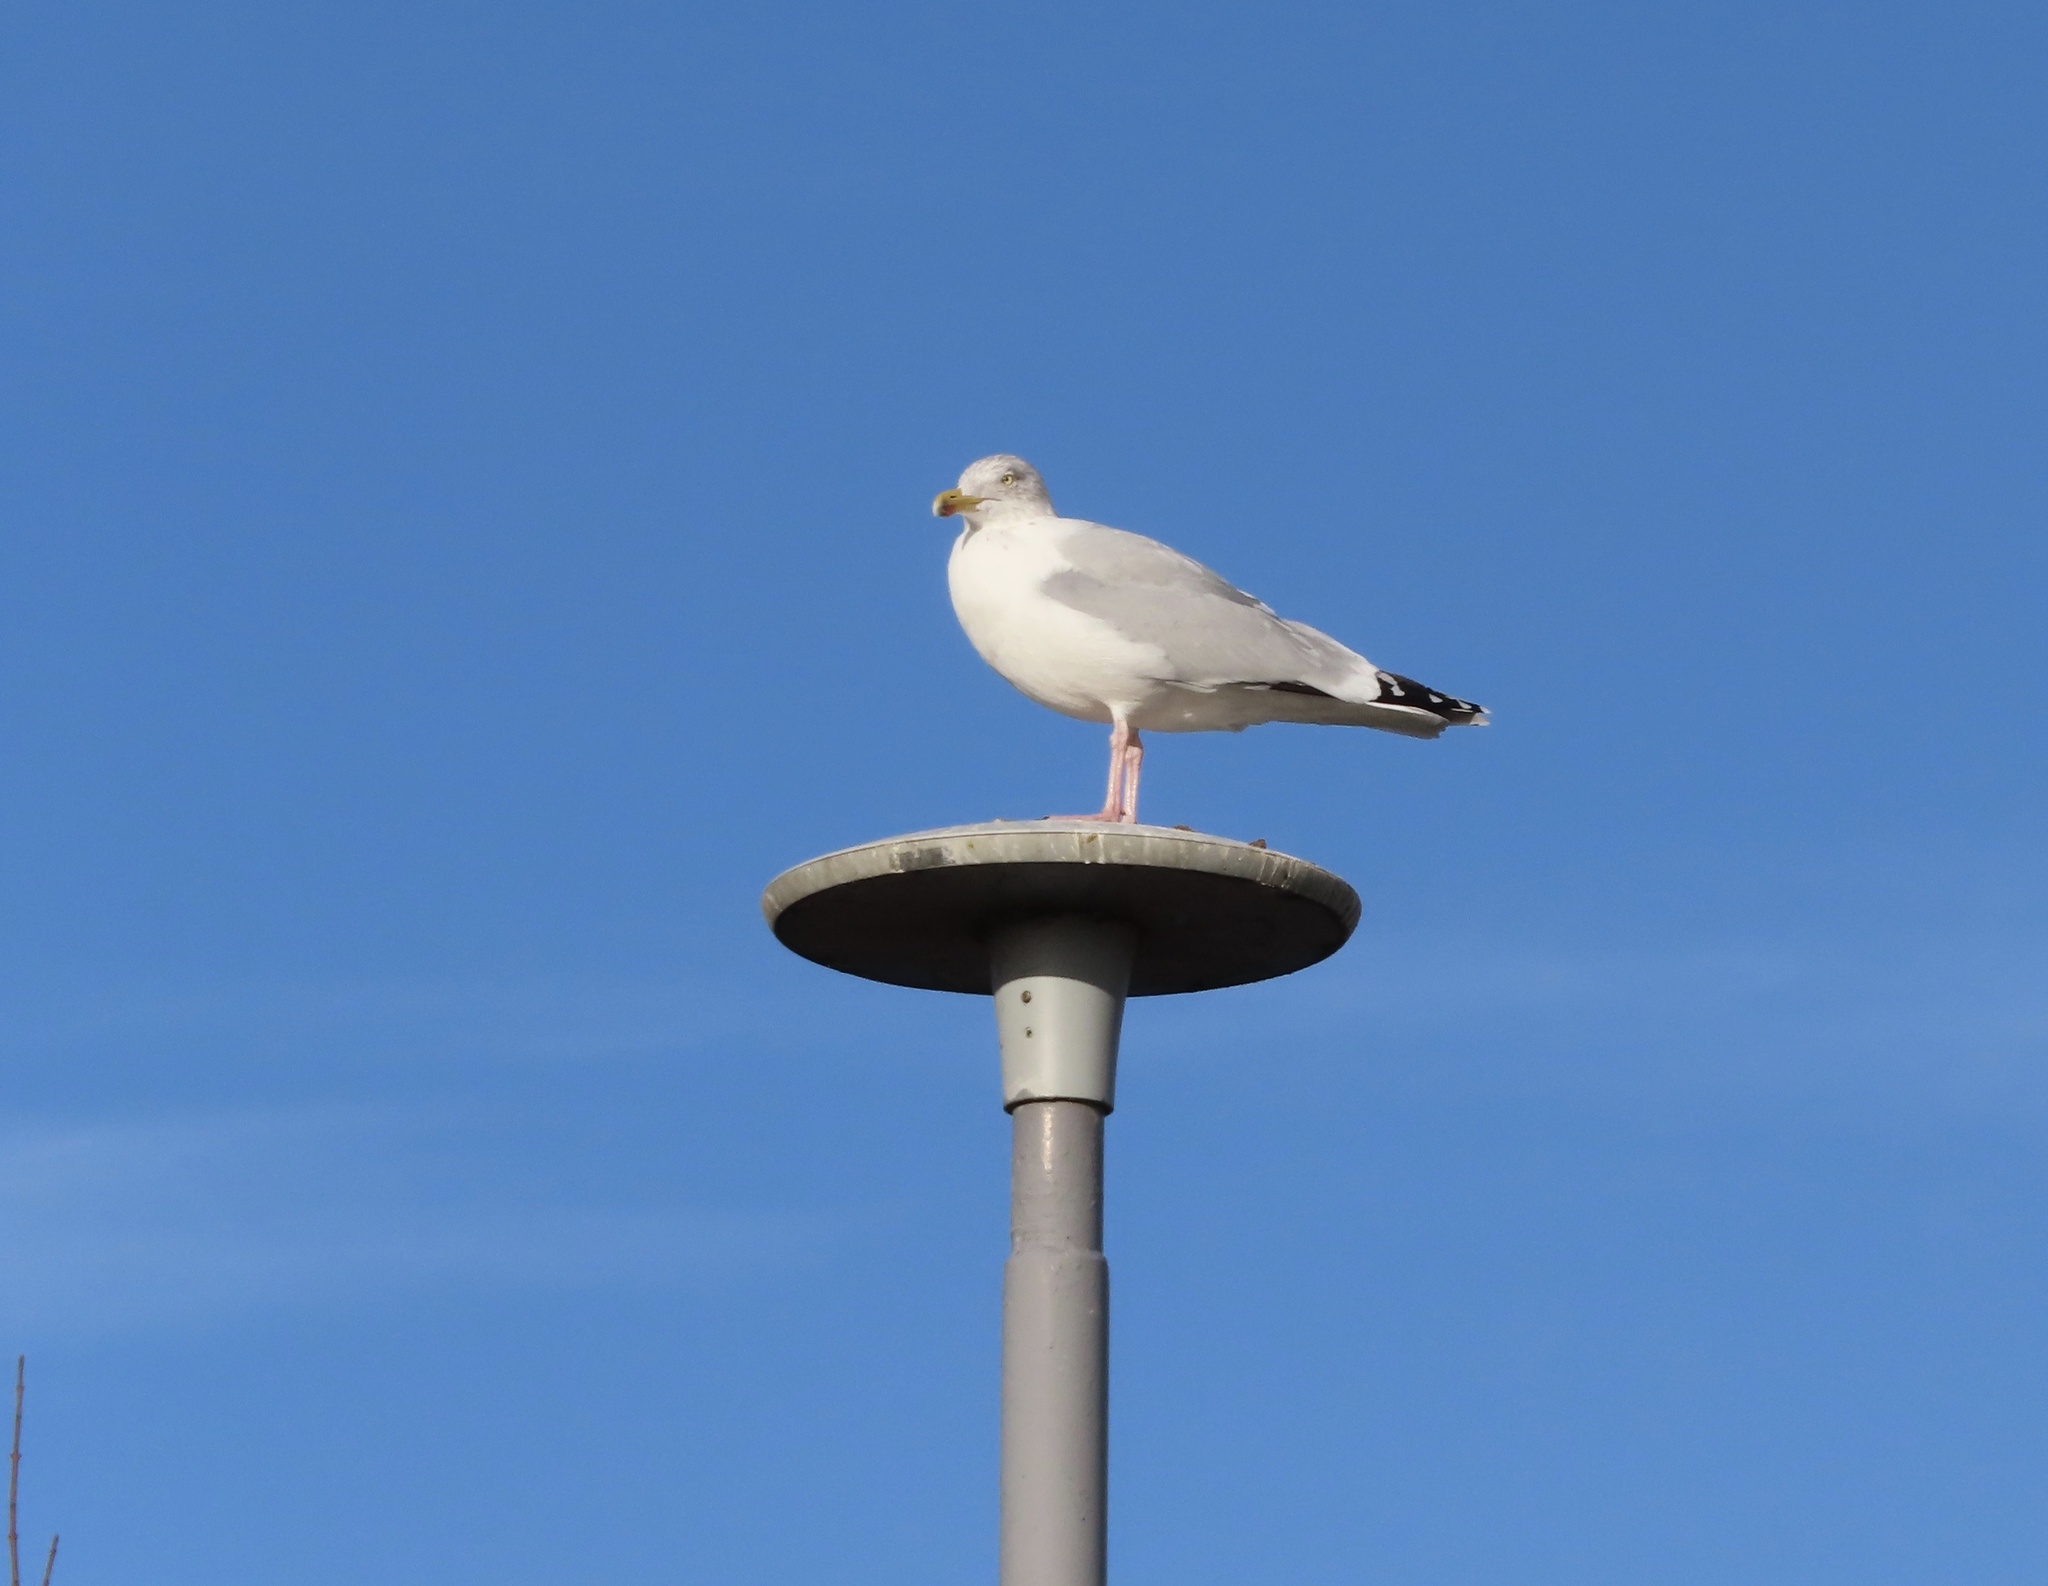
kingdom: Animalia
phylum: Chordata
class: Aves
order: Charadriiformes
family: Laridae
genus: Larus
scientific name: Larus argentatus
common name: Herring gull
